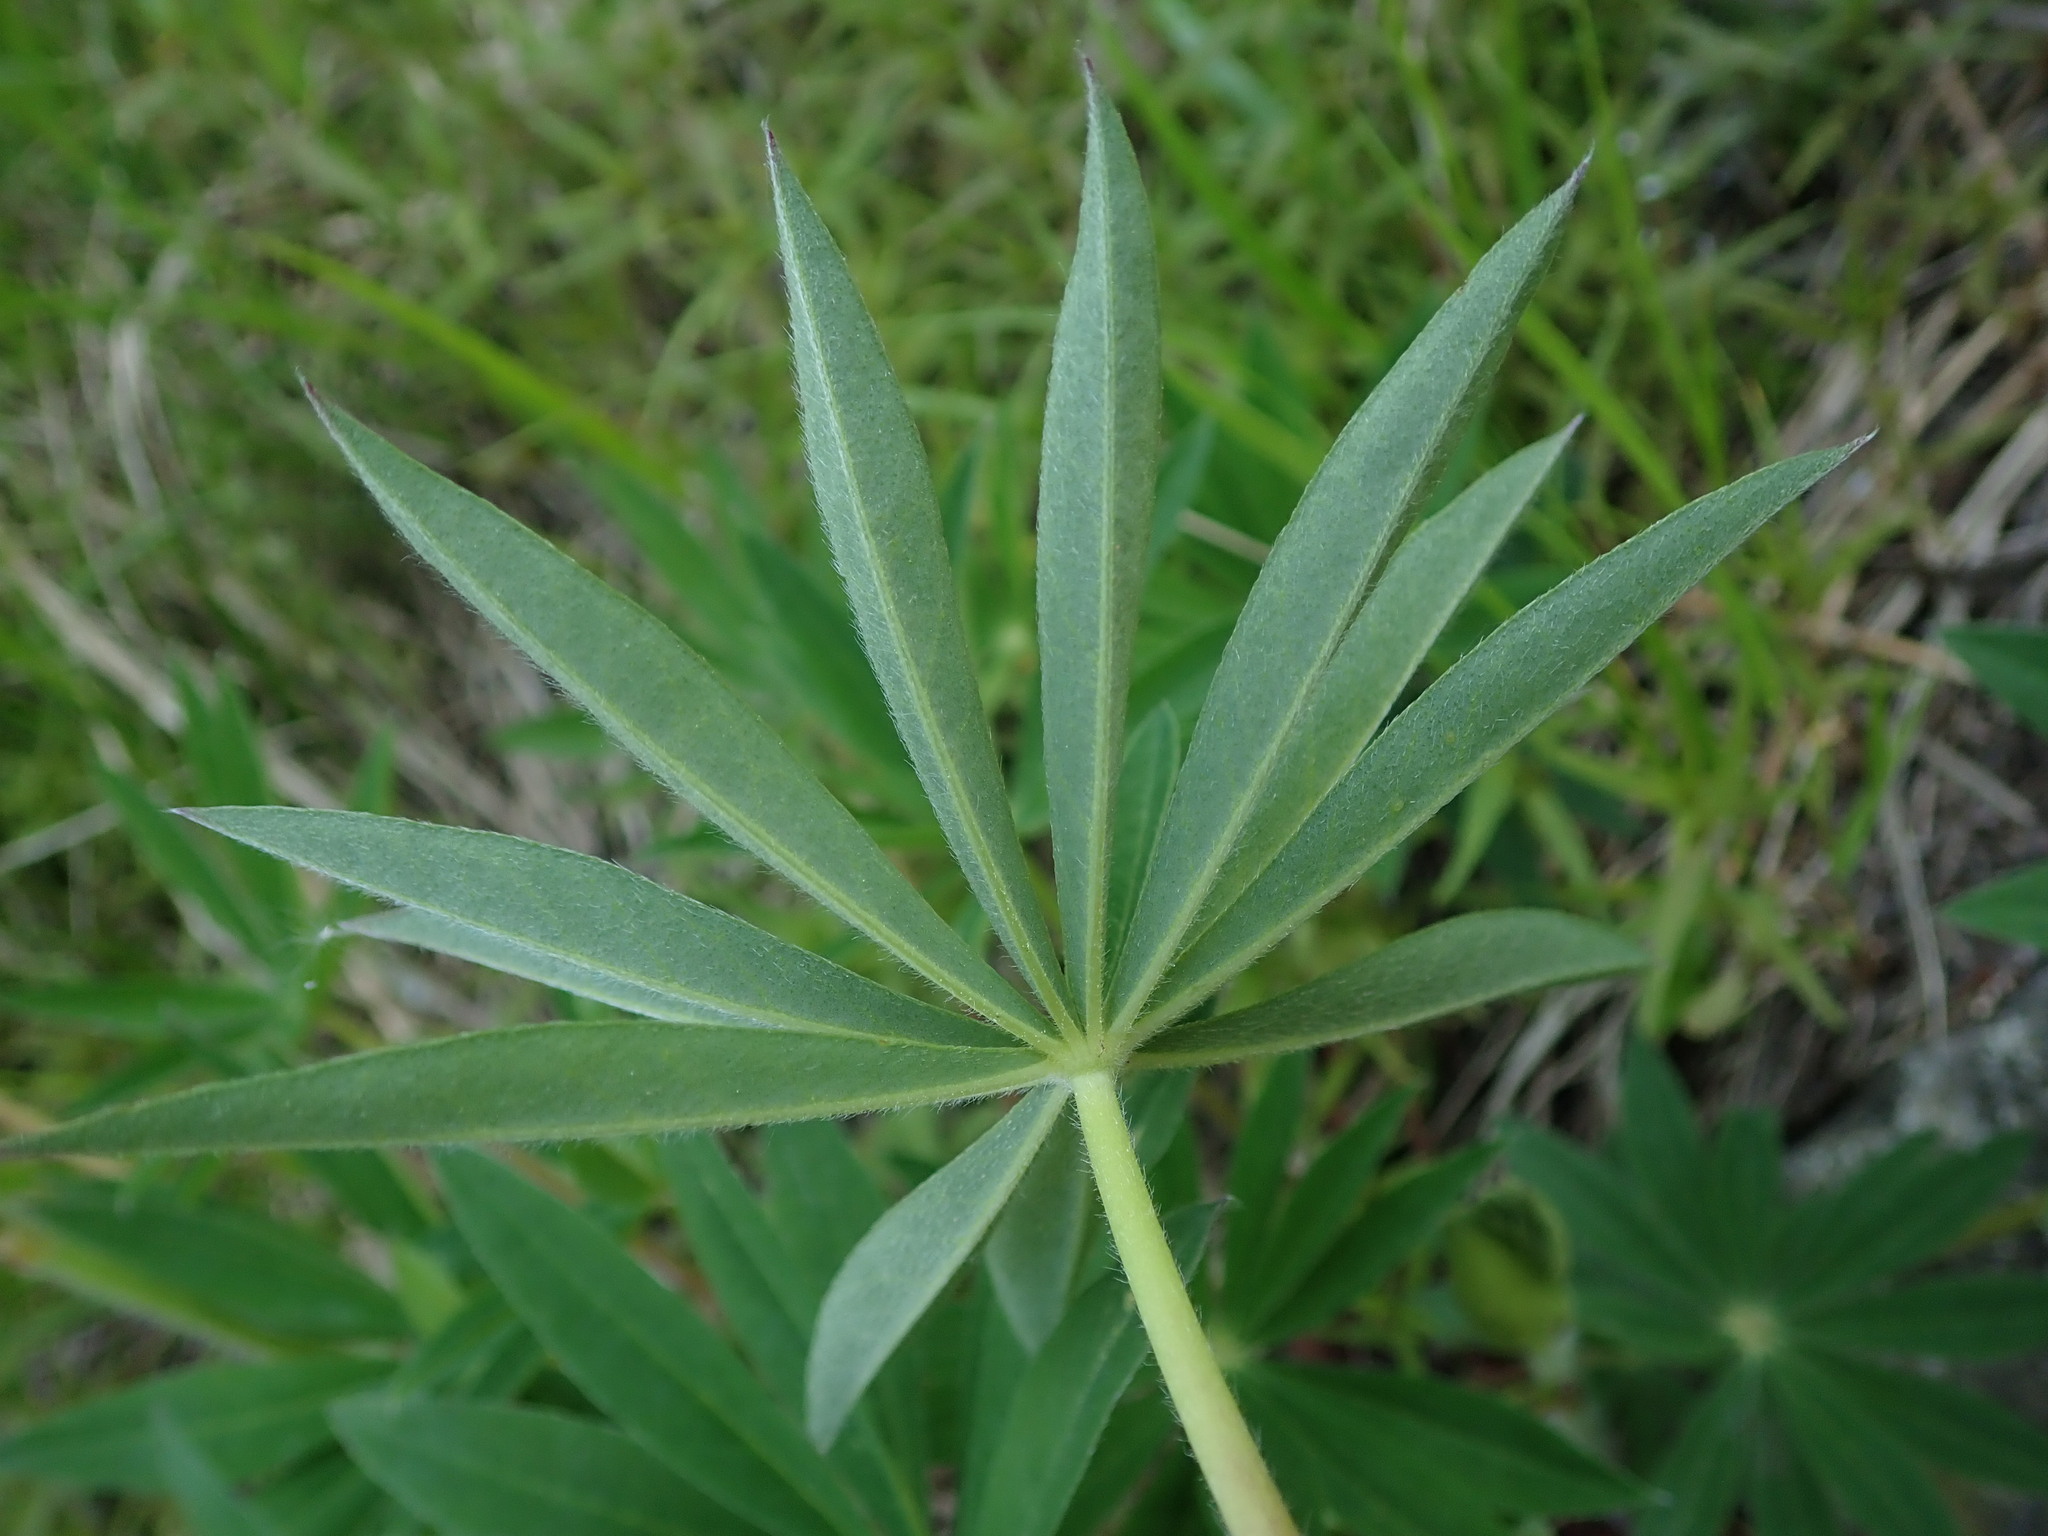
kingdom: Plantae
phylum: Tracheophyta
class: Magnoliopsida
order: Fabales
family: Fabaceae
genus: Lupinus
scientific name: Lupinus polyphyllus
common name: Garden lupin
